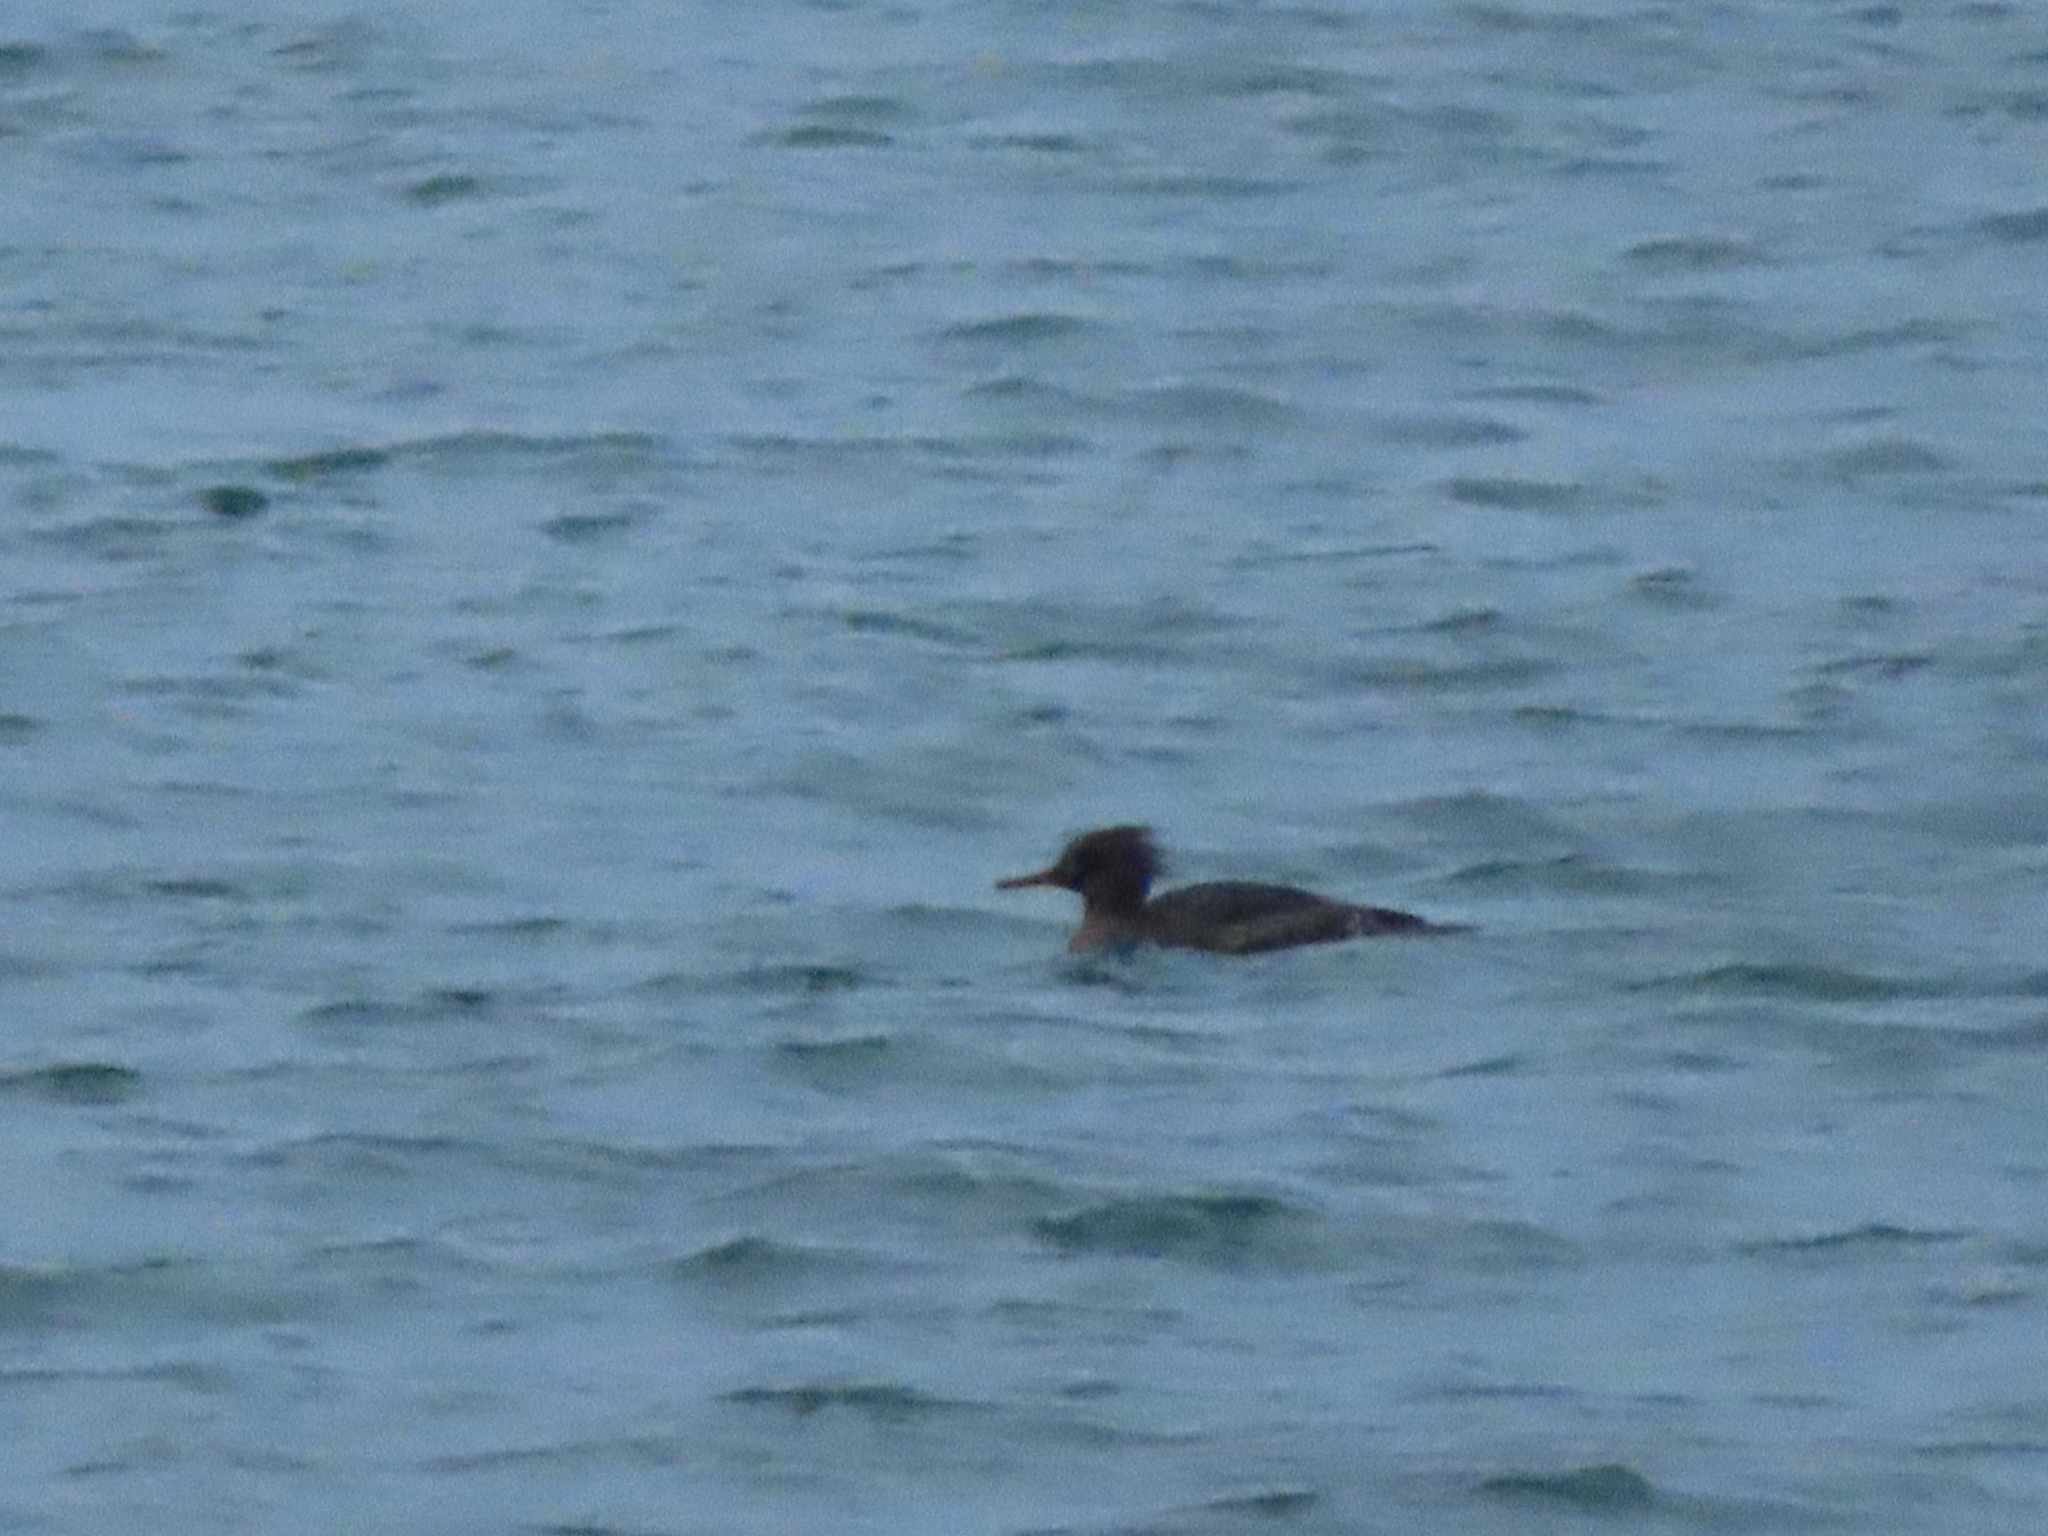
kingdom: Animalia
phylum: Chordata
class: Aves
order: Anseriformes
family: Anatidae
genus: Mergus
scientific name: Mergus serrator
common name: Red-breasted merganser
